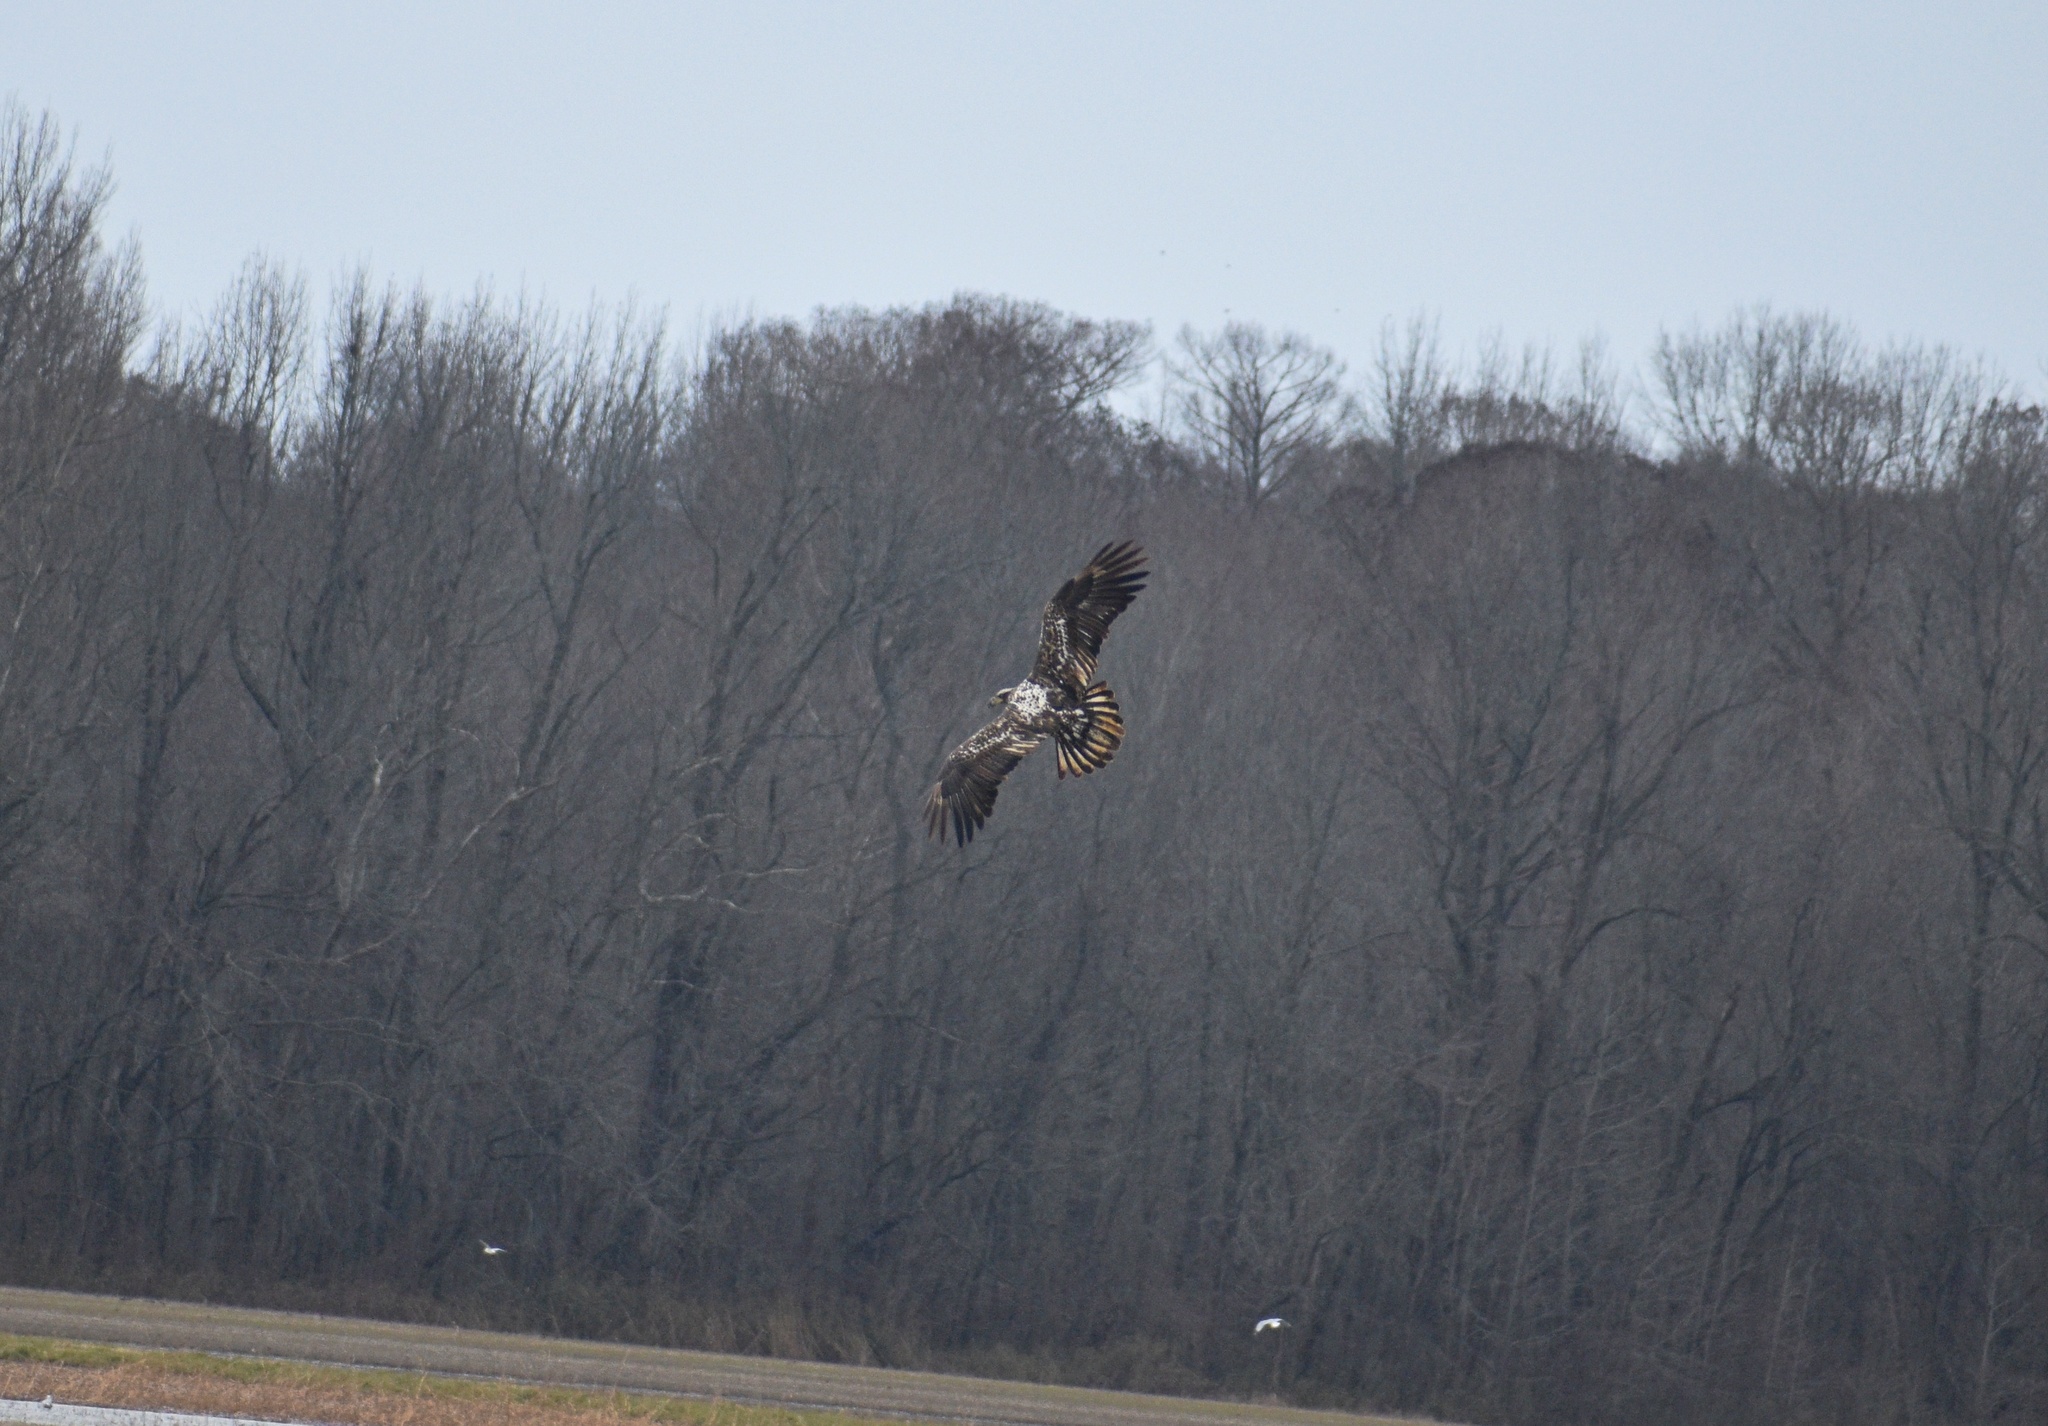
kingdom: Animalia
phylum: Chordata
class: Aves
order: Accipitriformes
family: Accipitridae
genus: Haliaeetus
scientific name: Haliaeetus leucocephalus
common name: Bald eagle
